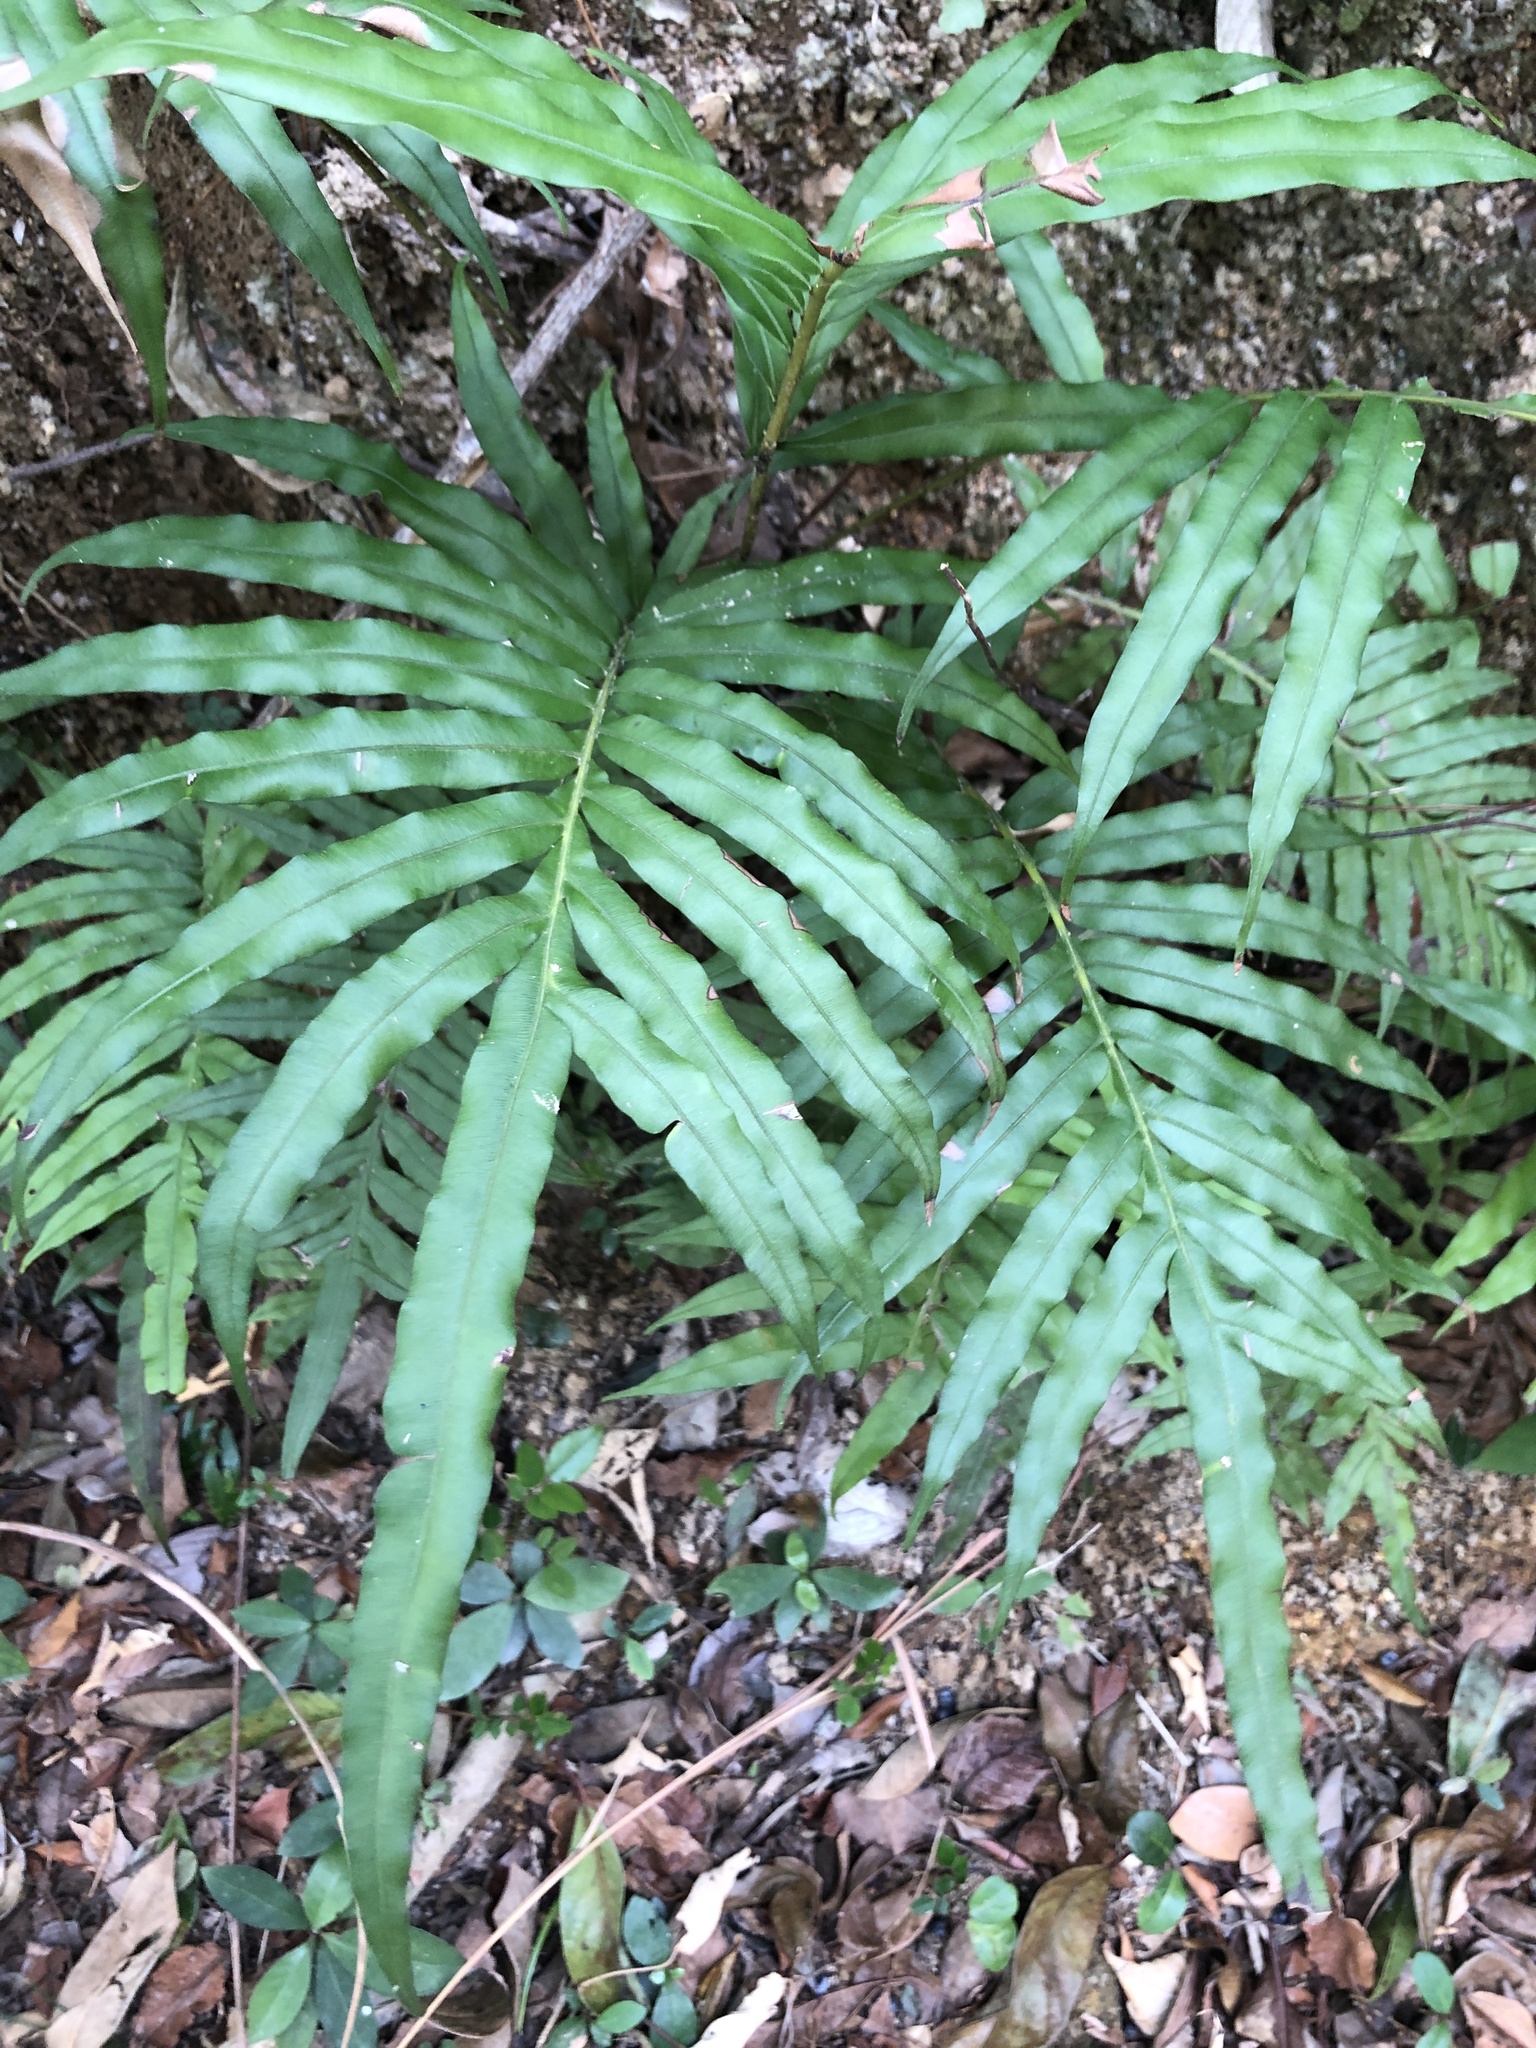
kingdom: Plantae
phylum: Tracheophyta
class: Polypodiopsida
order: Polypodiales
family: Blechnaceae
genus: Blechnopsis
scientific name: Blechnopsis orientalis
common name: Oriental blechnum
